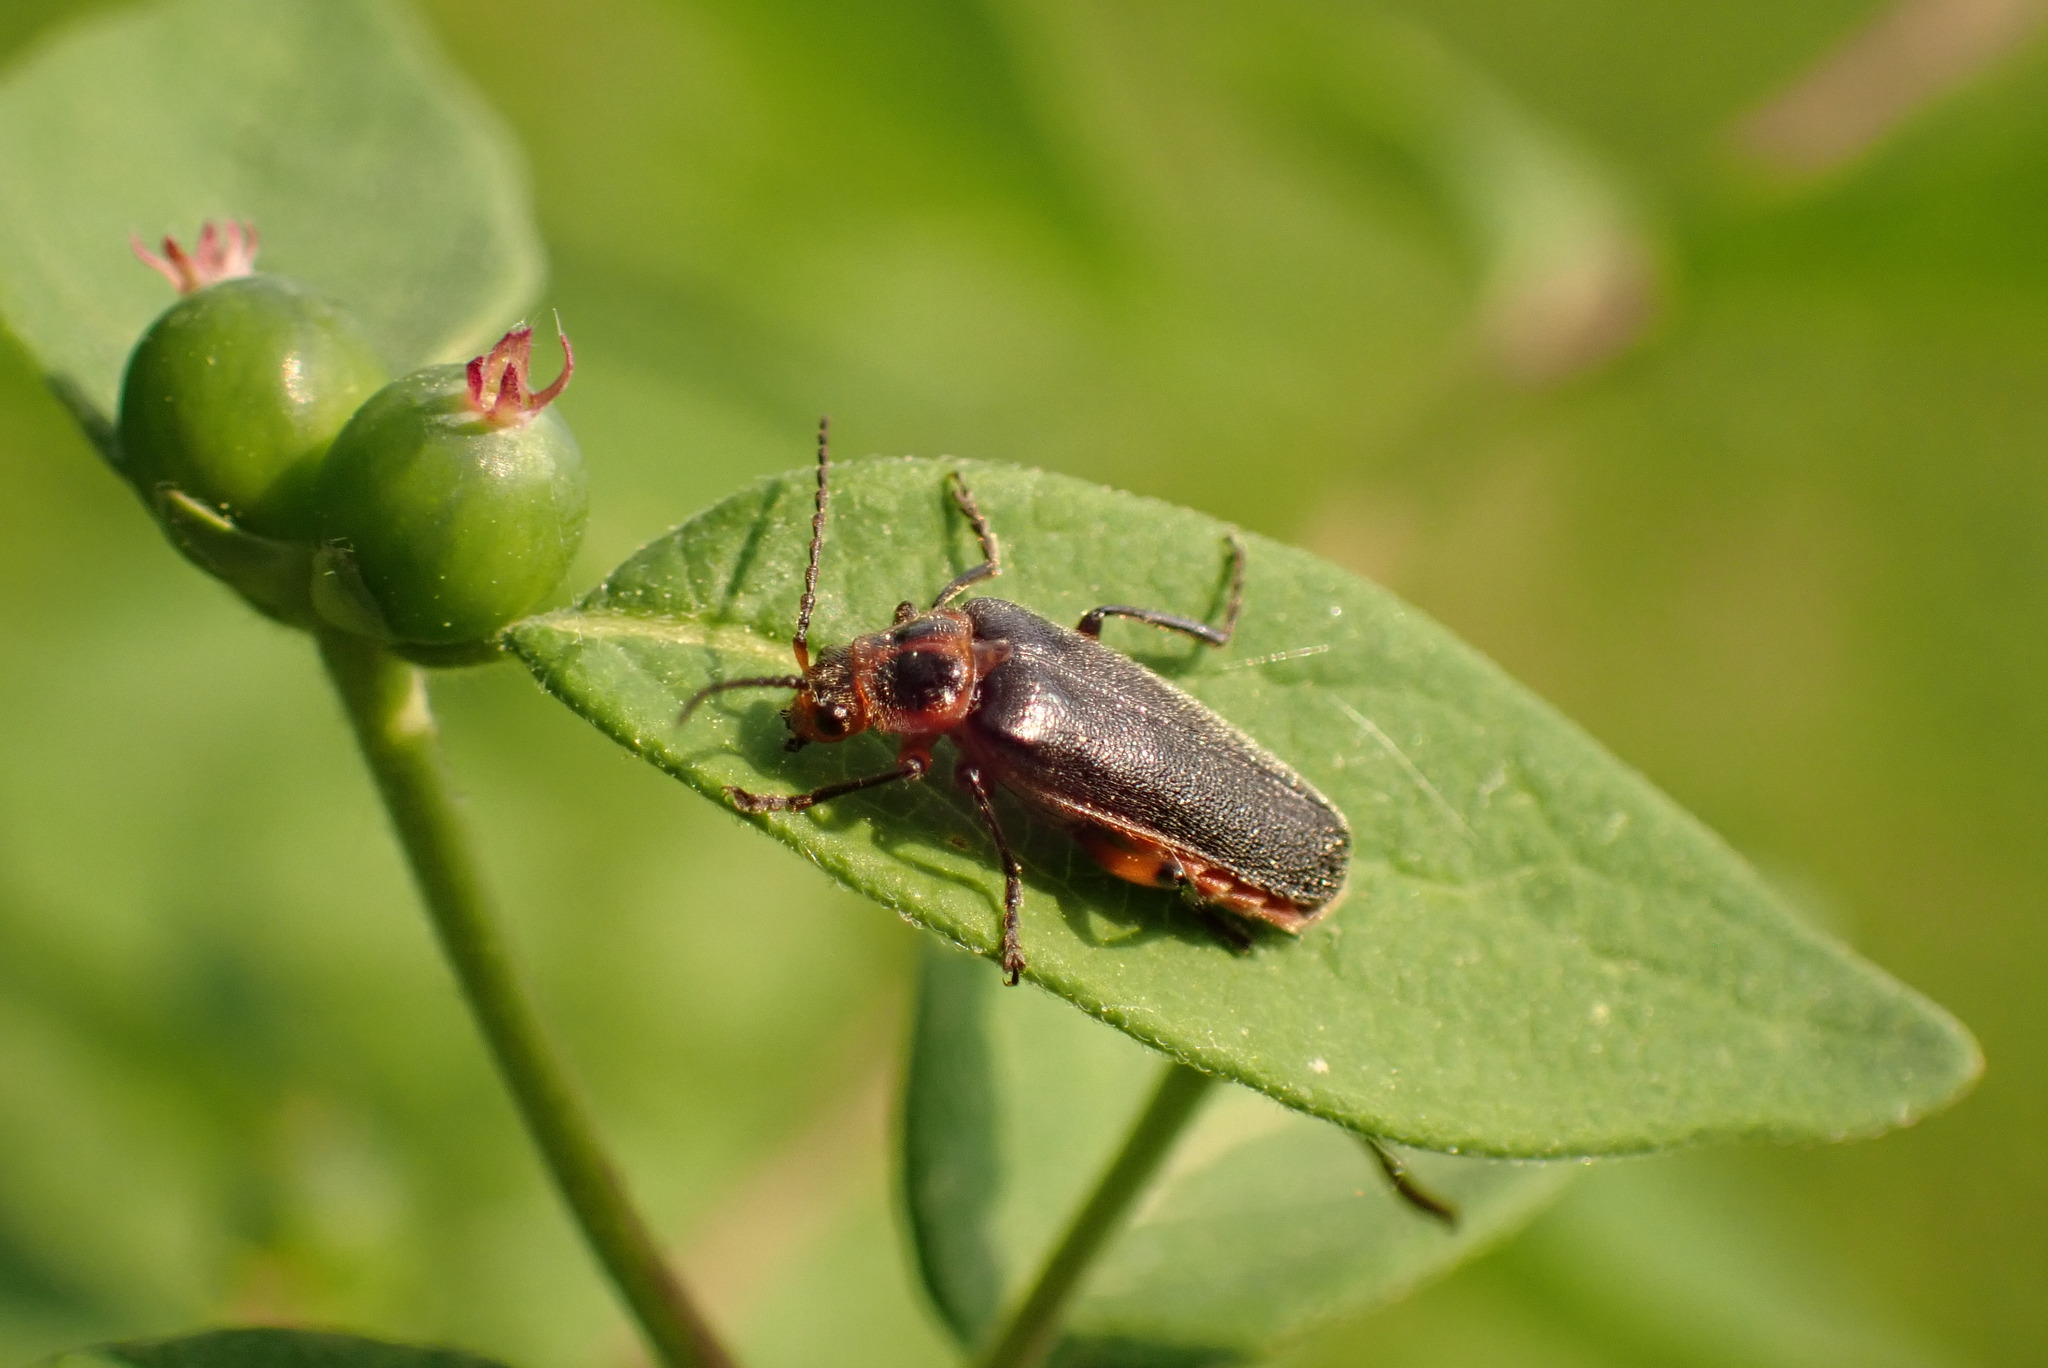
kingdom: Animalia
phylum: Arthropoda
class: Insecta
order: Coleoptera
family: Cantharidae
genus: Atalantycha
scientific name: Atalantycha bilineata
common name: Two-lined leatherwing
